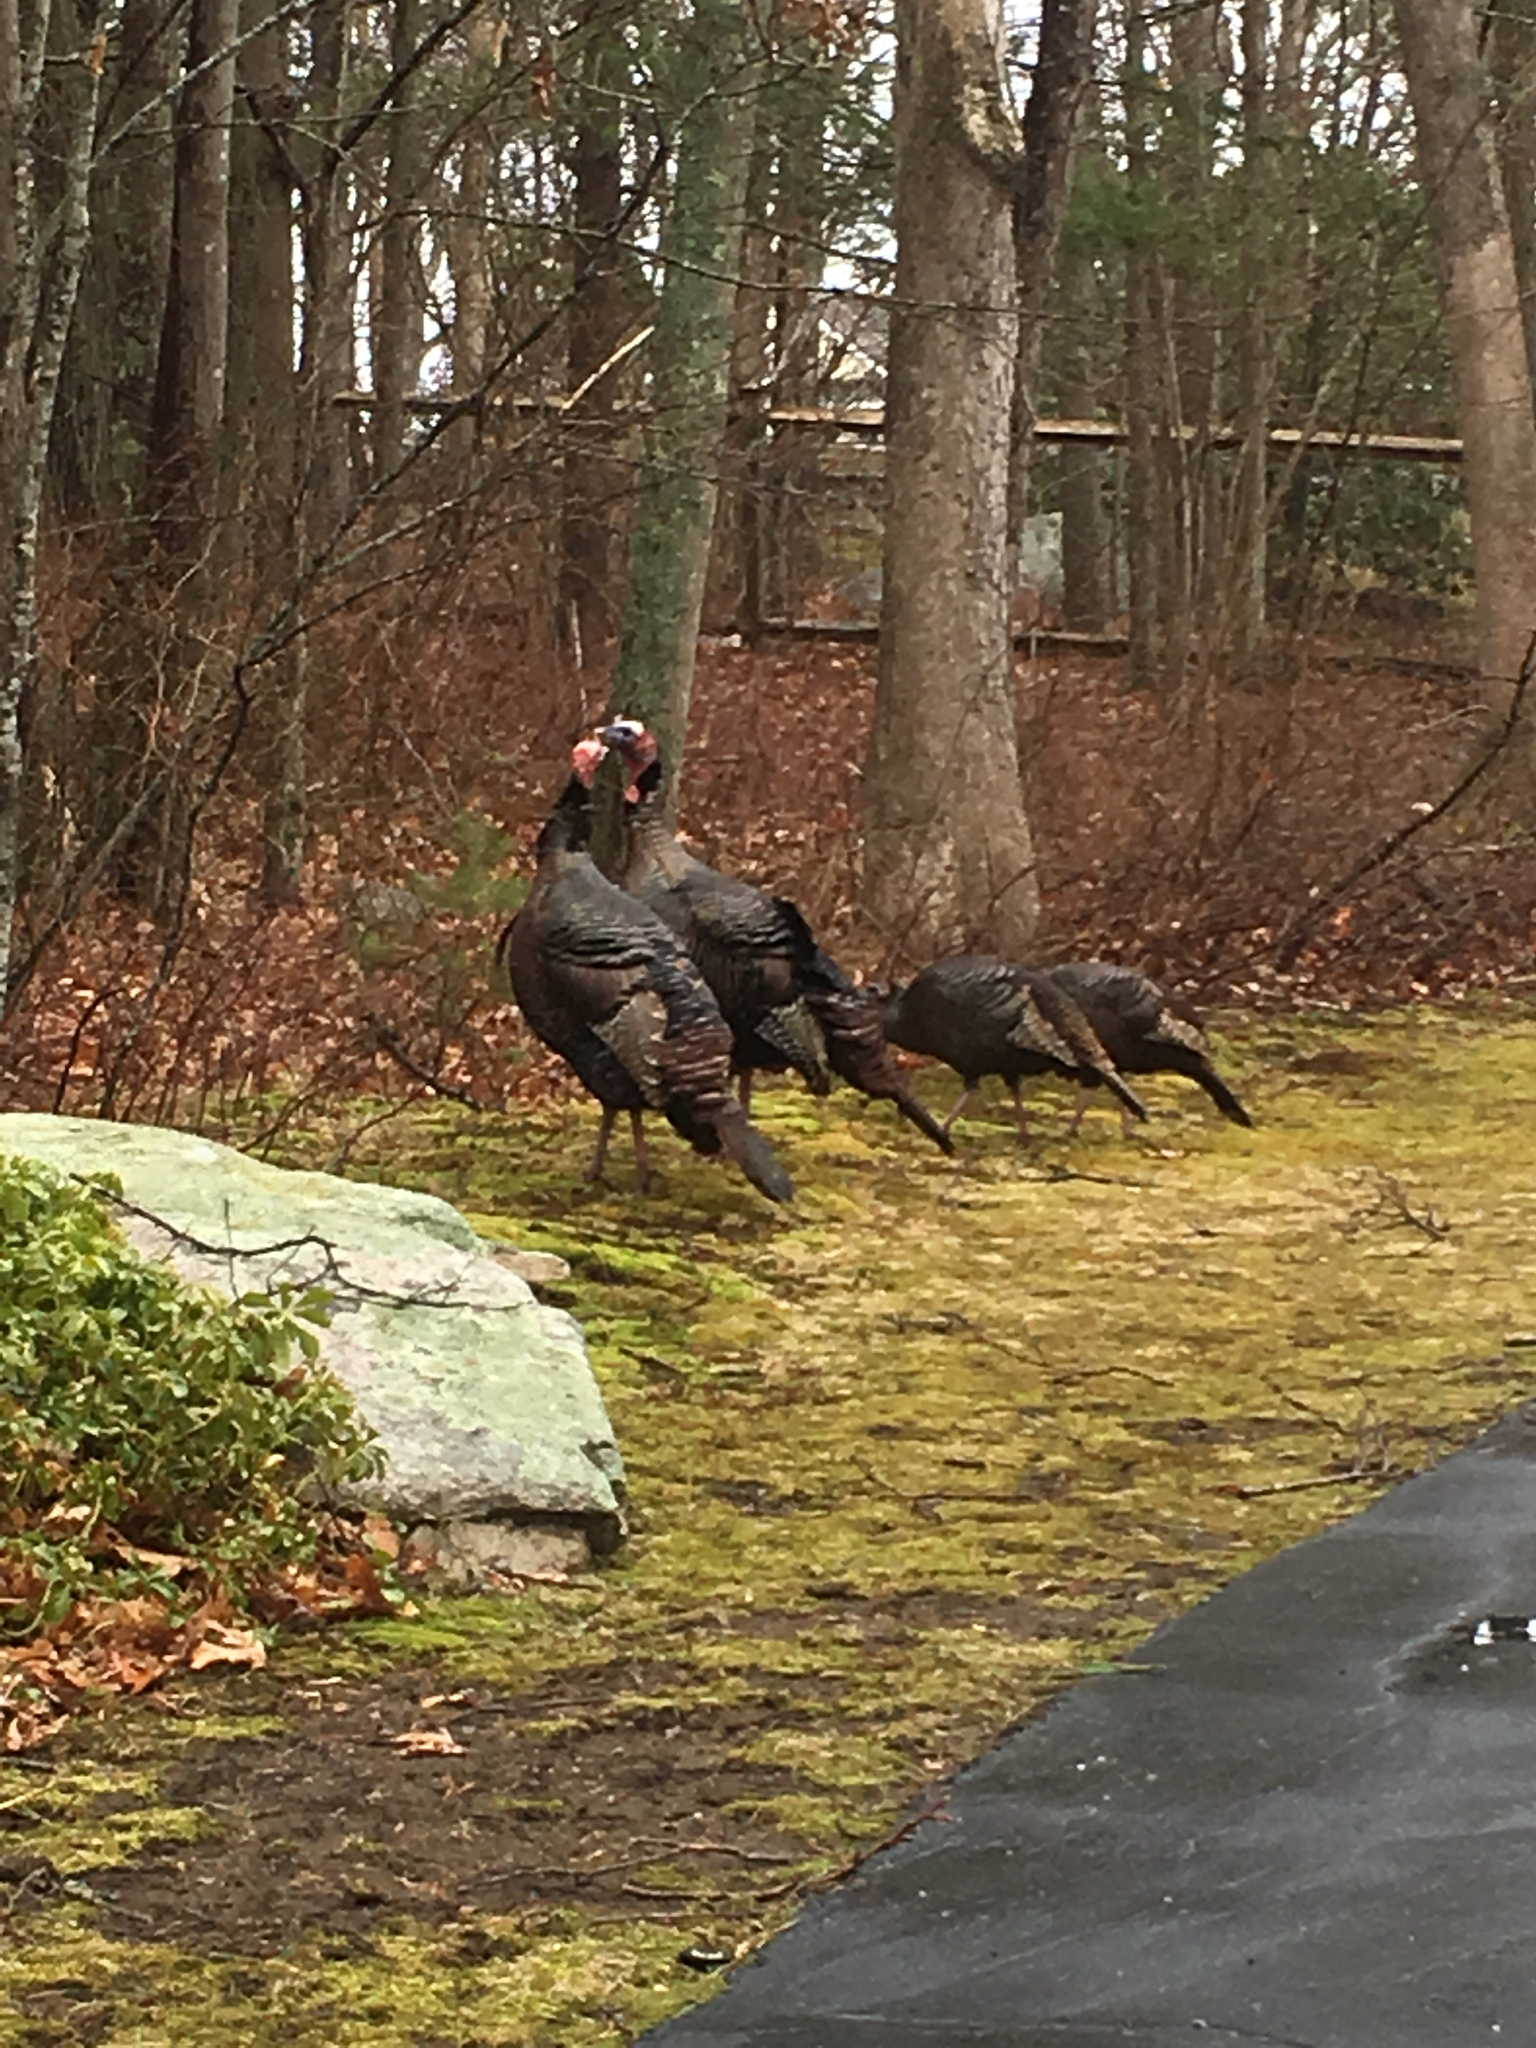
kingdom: Animalia
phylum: Chordata
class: Aves
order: Galliformes
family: Phasianidae
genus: Meleagris
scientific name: Meleagris gallopavo
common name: Wild turkey
